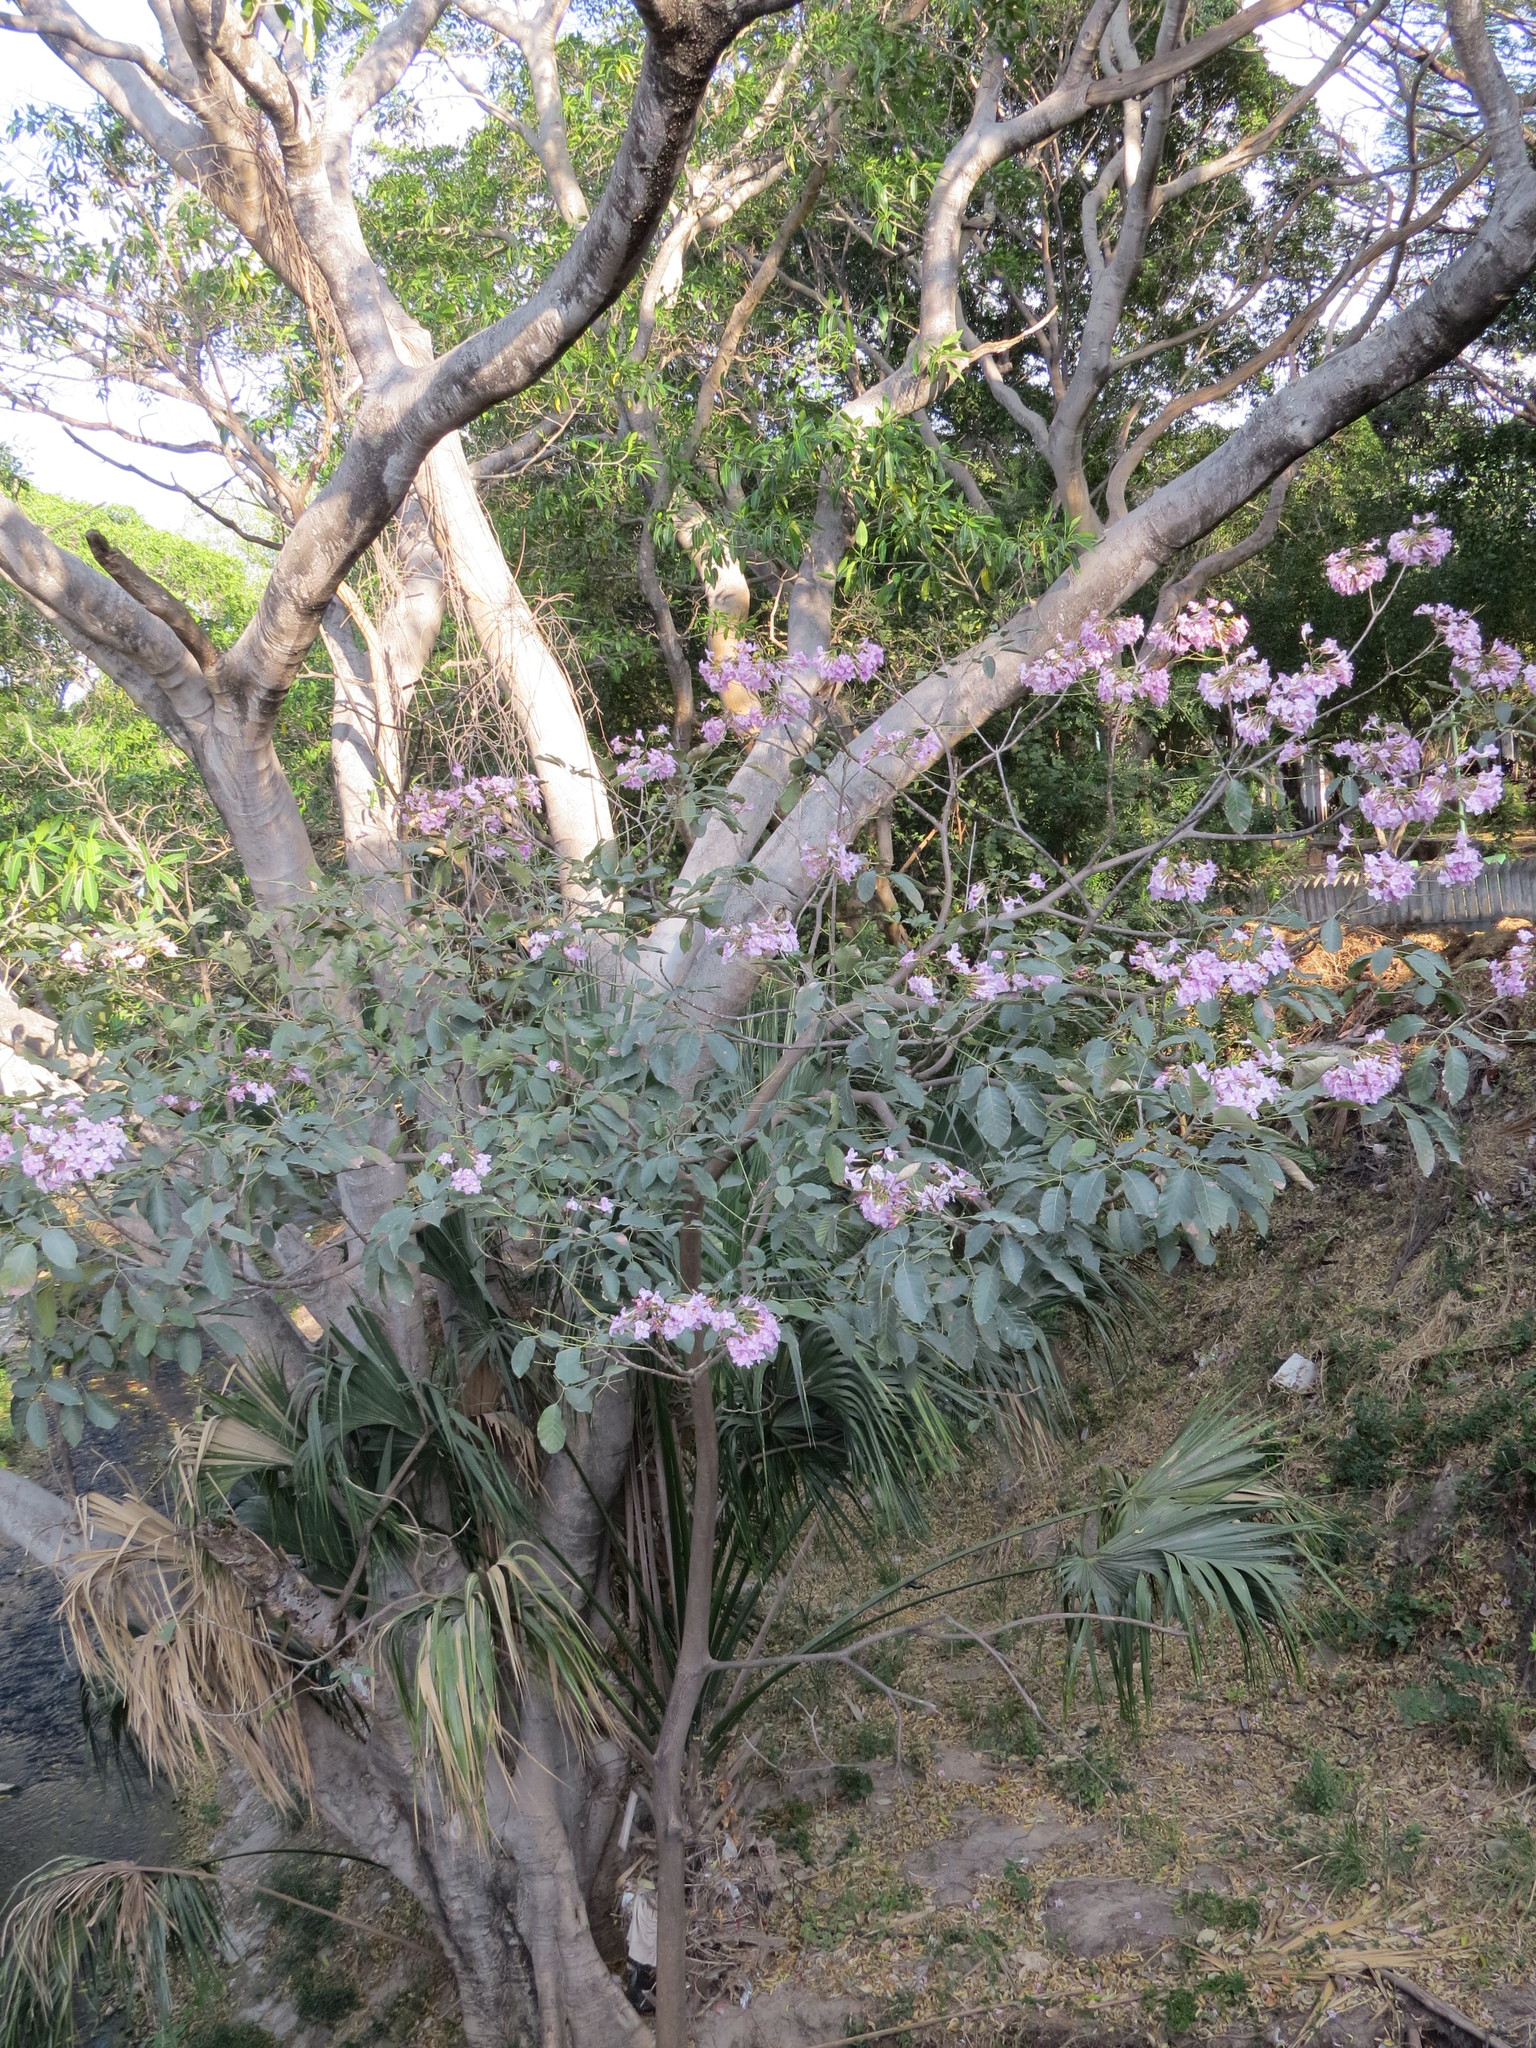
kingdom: Plantae
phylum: Tracheophyta
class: Magnoliopsida
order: Lamiales
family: Bignoniaceae
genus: Tabebuia
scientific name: Tabebuia rosea
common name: Pink poui
